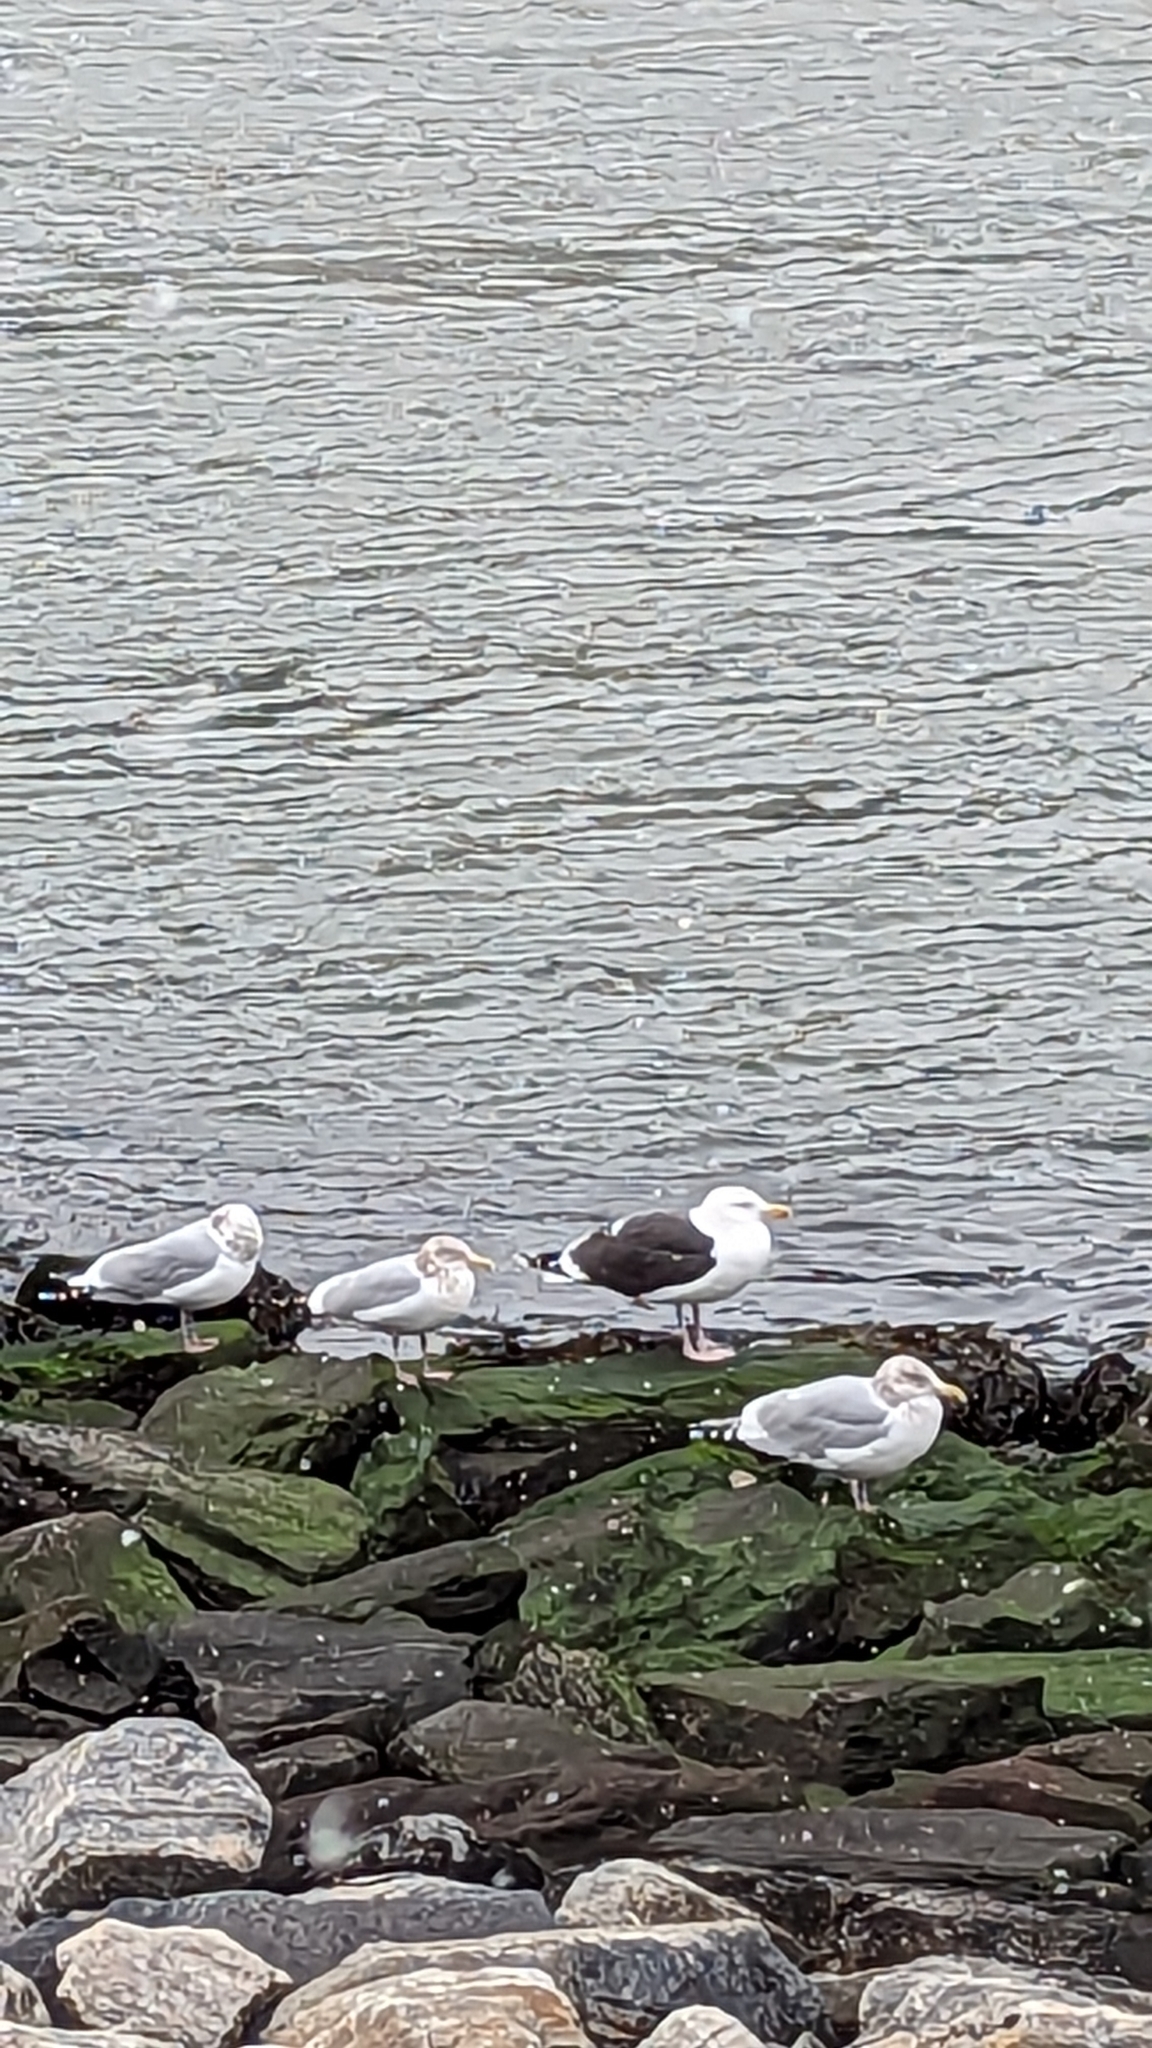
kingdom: Animalia
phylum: Chordata
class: Aves
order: Charadriiformes
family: Laridae
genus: Larus
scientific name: Larus marinus
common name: Great black-backed gull
